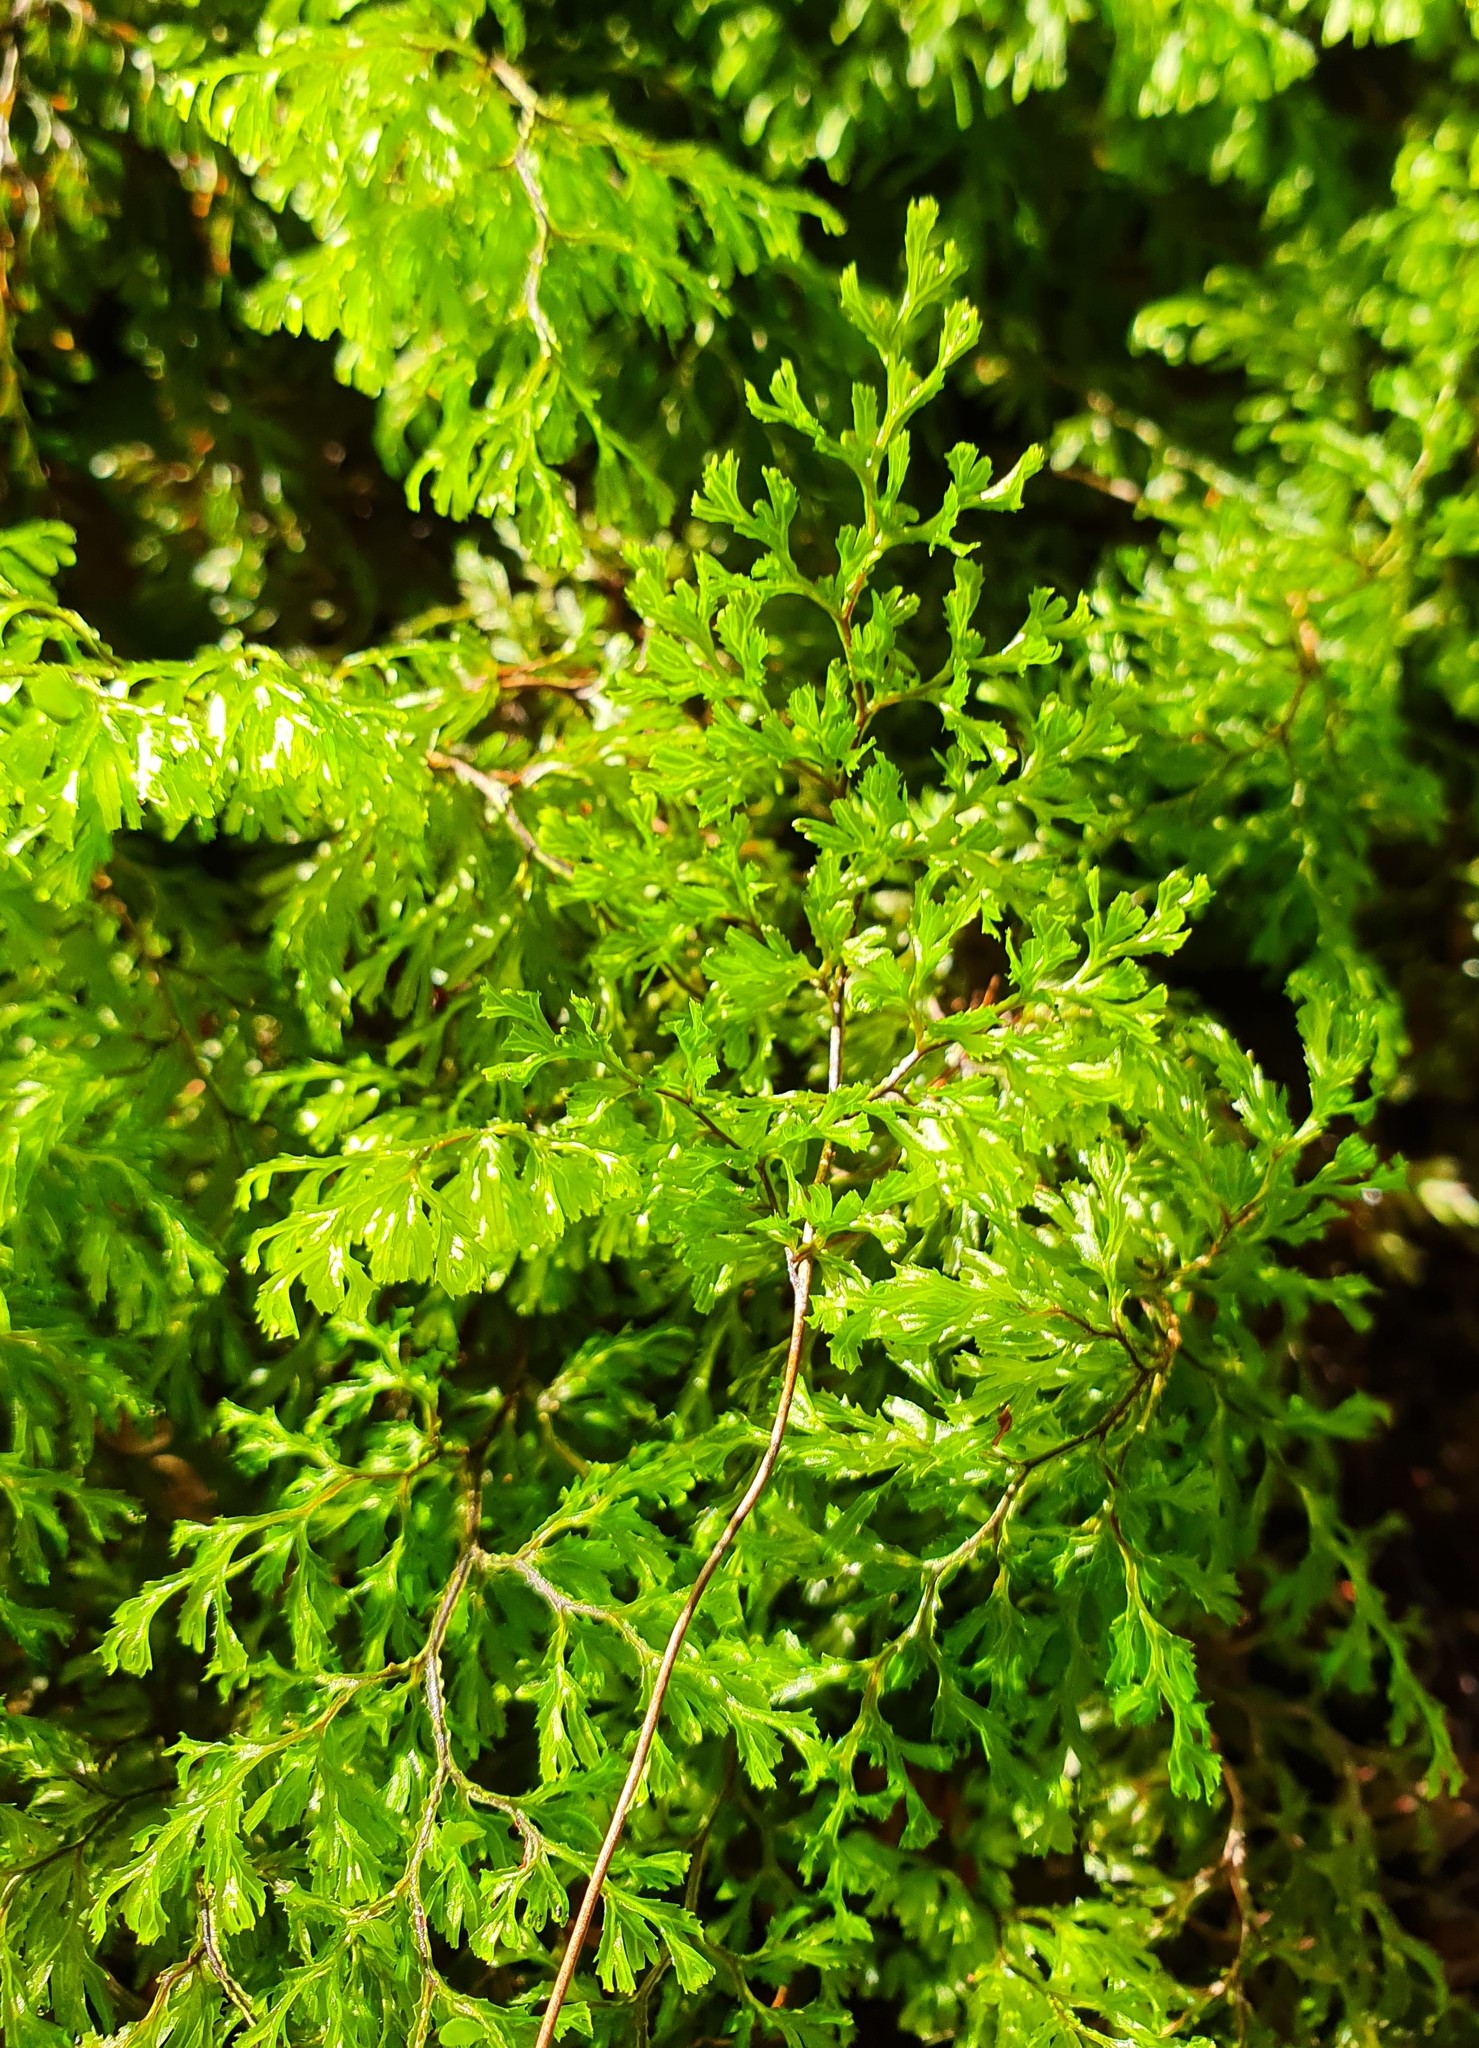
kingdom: Plantae
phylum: Tracheophyta
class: Polypodiopsida
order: Hymenophyllales
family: Hymenophyllaceae
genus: Hymenophyllum
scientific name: Hymenophyllum multifidum
